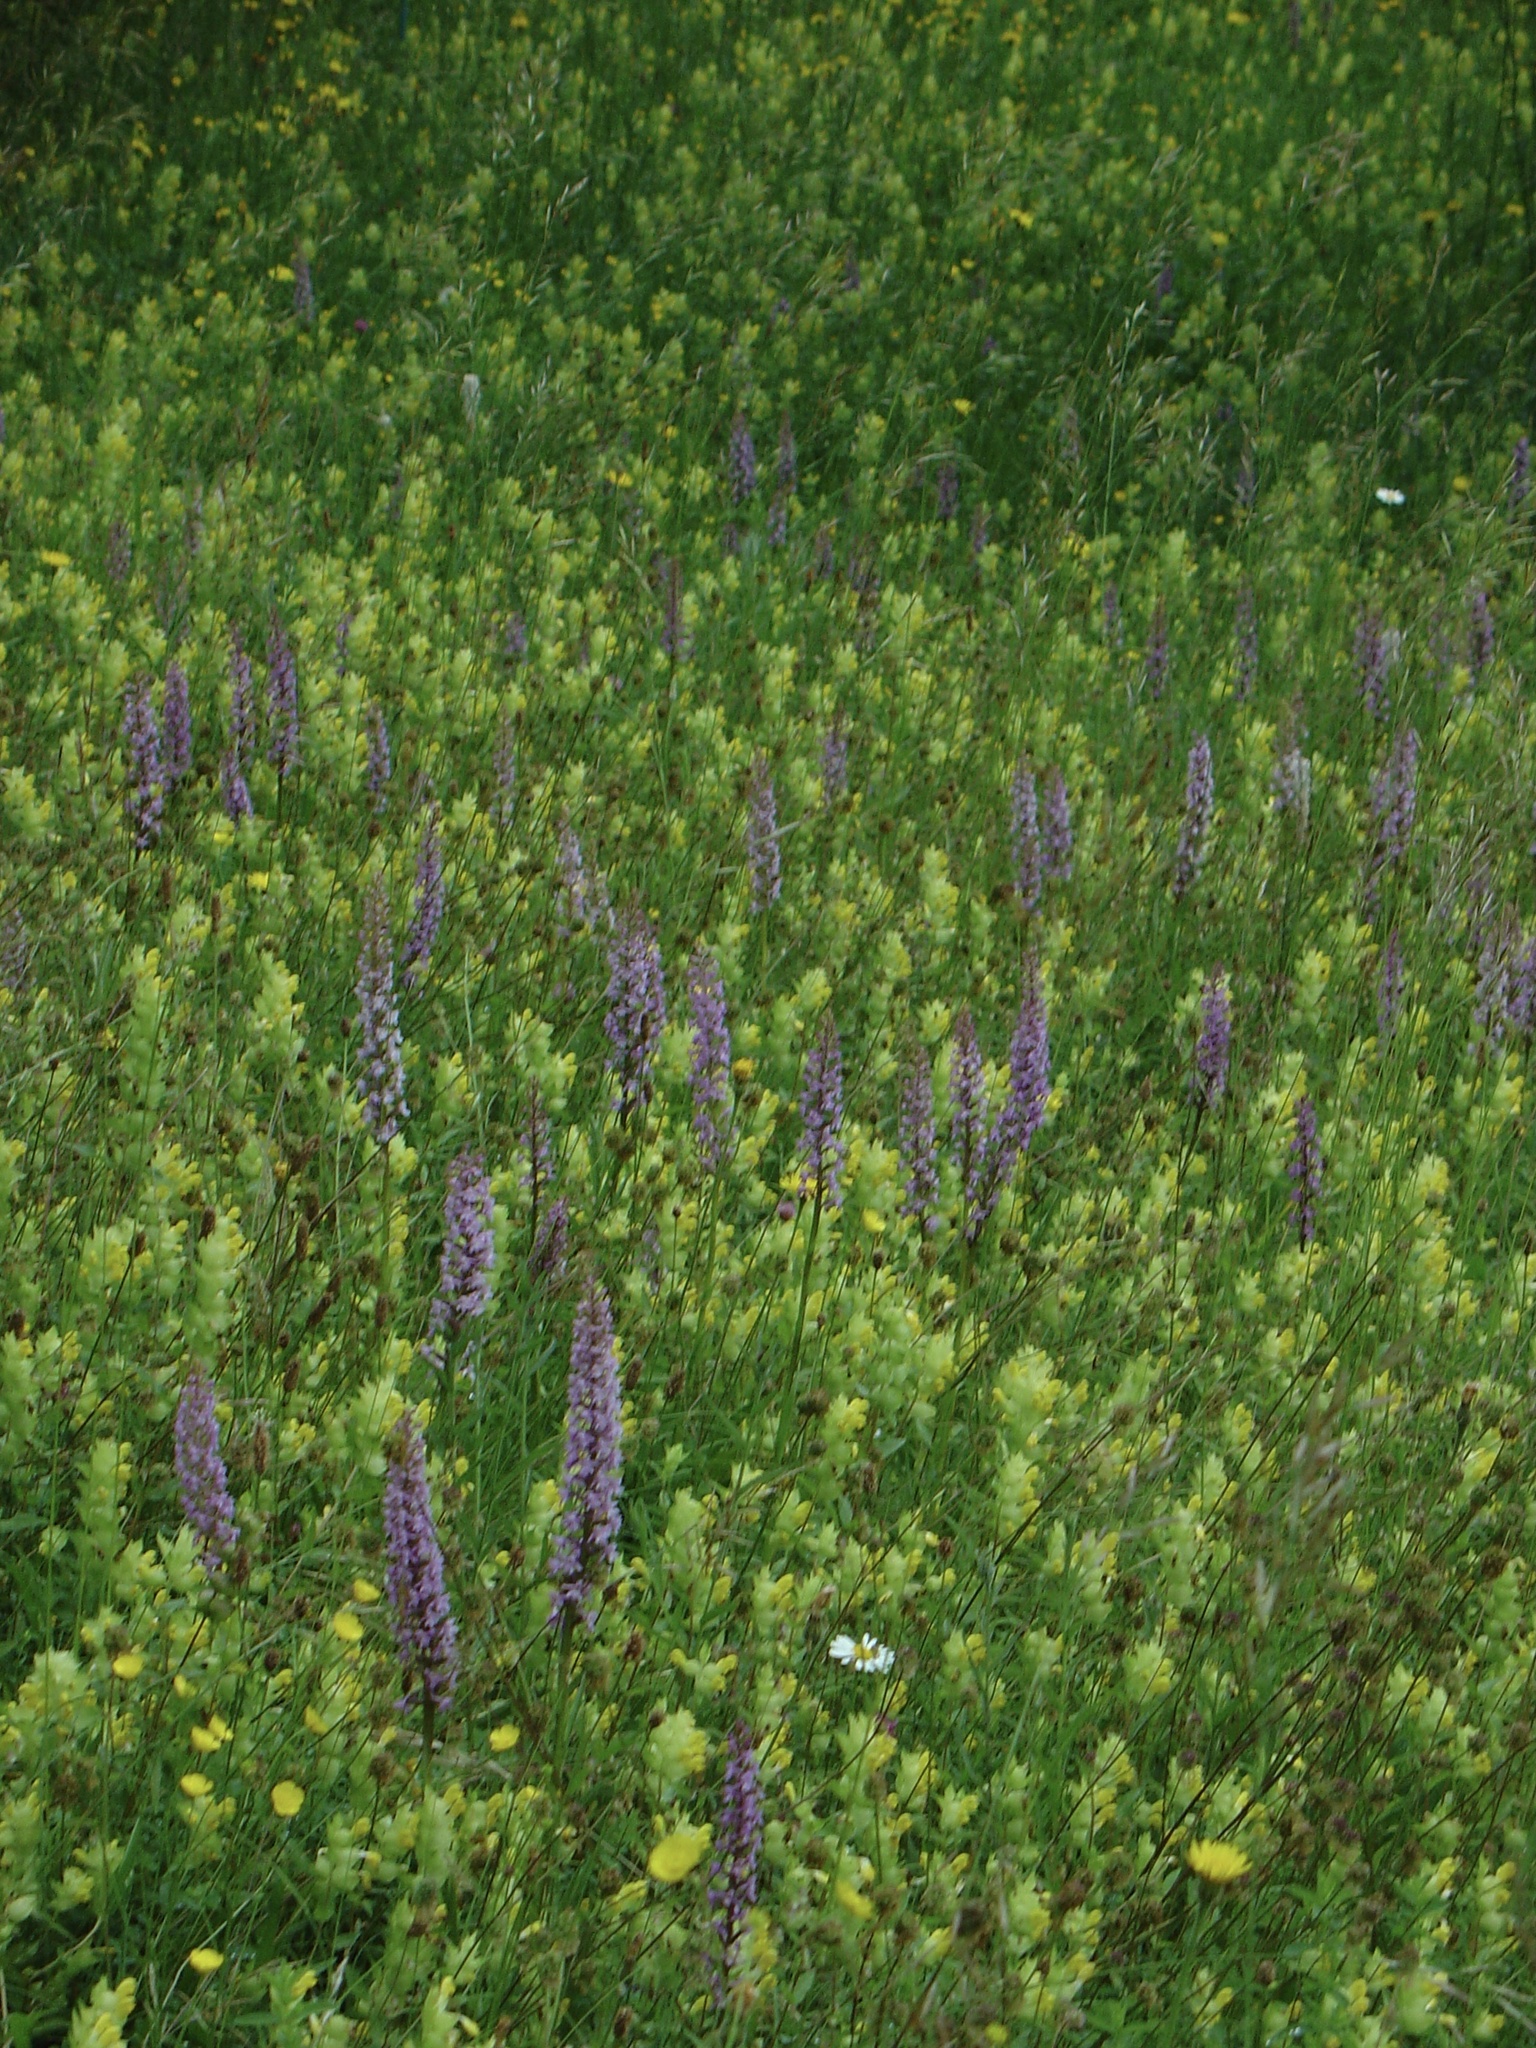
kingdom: Plantae
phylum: Tracheophyta
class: Liliopsida
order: Asparagales
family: Orchidaceae
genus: Gymnadenia
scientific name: Gymnadenia conopsea
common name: Fragrant orchid
